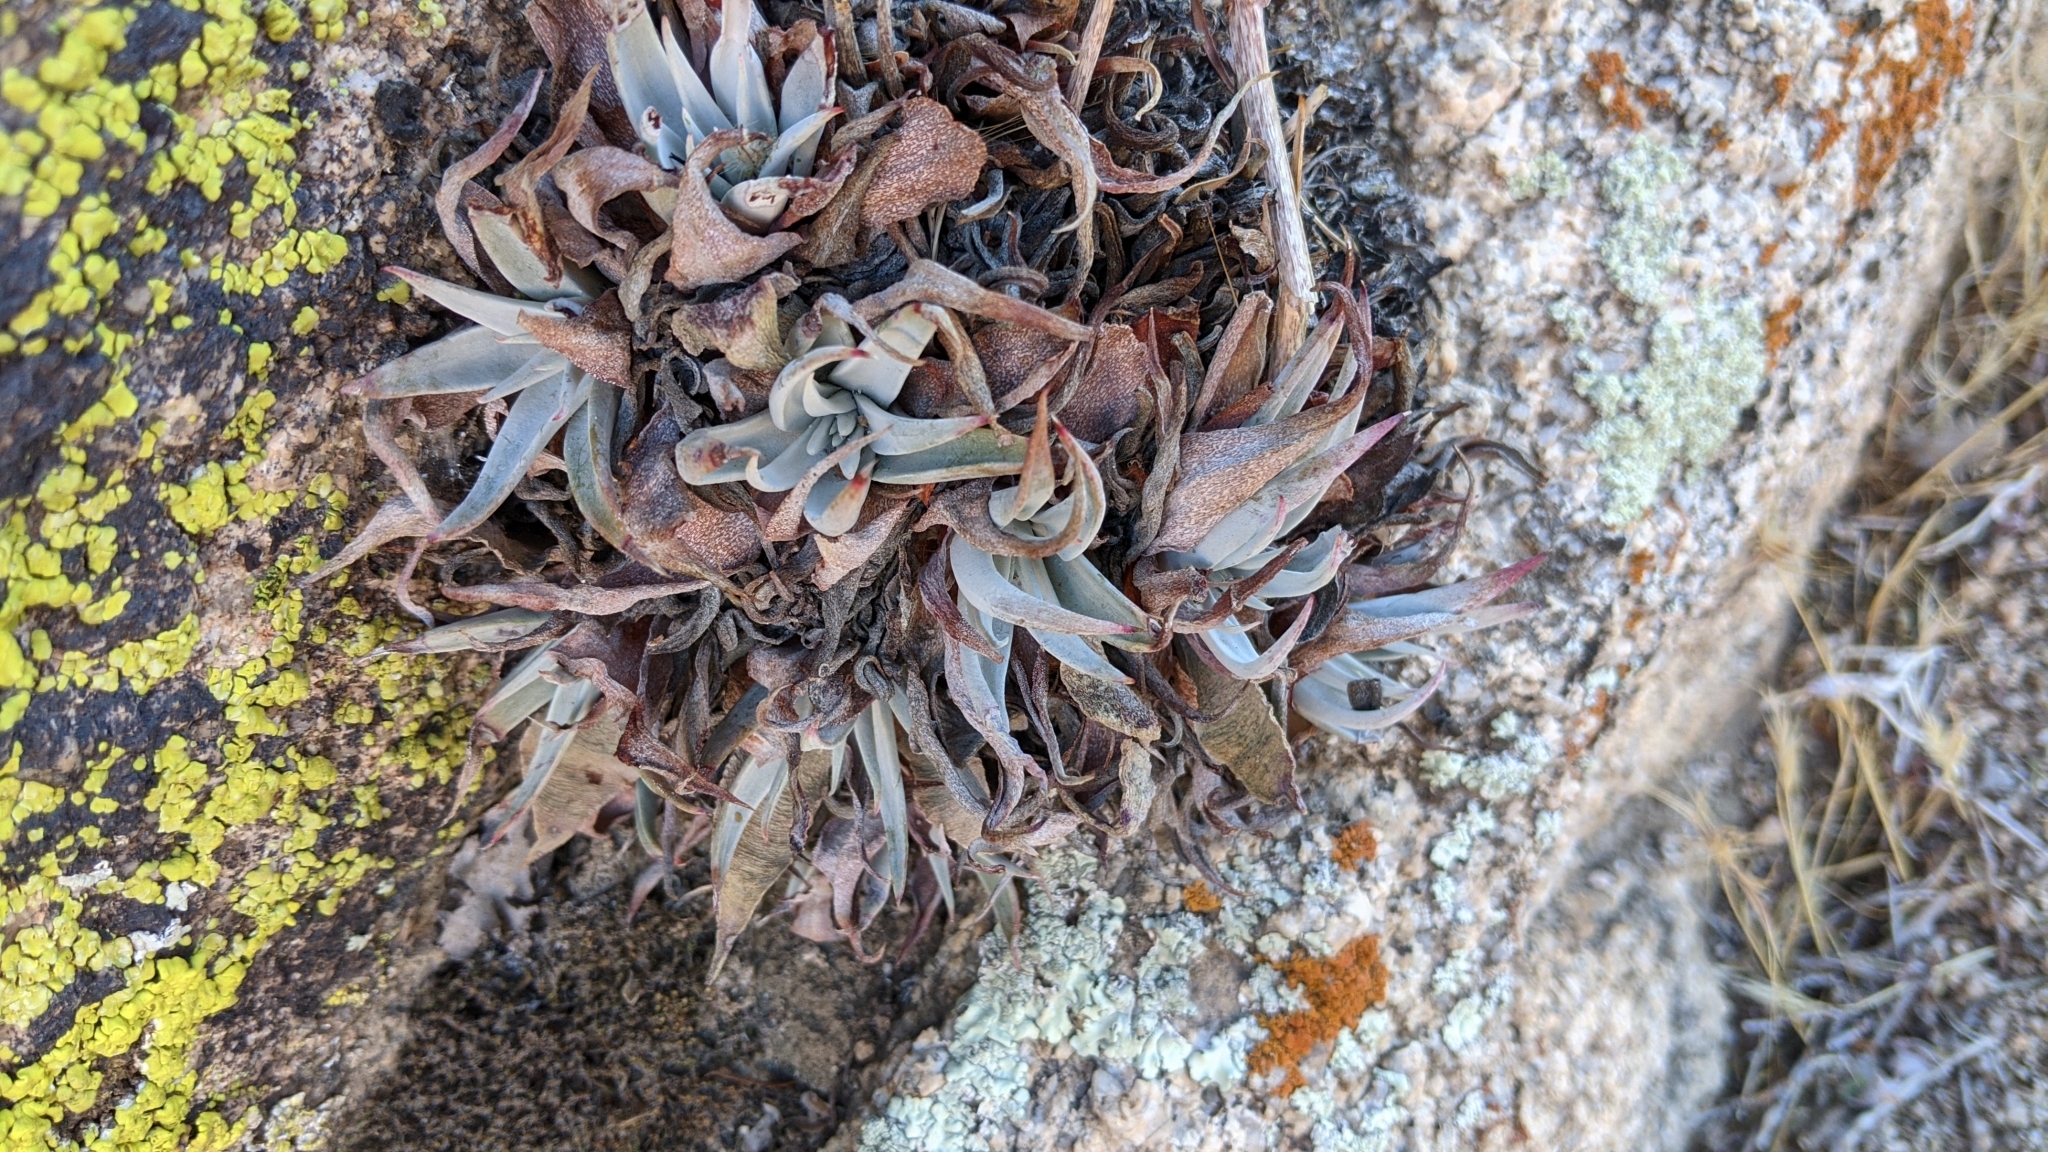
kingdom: Plantae
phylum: Tracheophyta
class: Magnoliopsida
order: Saxifragales
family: Crassulaceae
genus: Dudleya
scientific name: Dudleya saxosa
